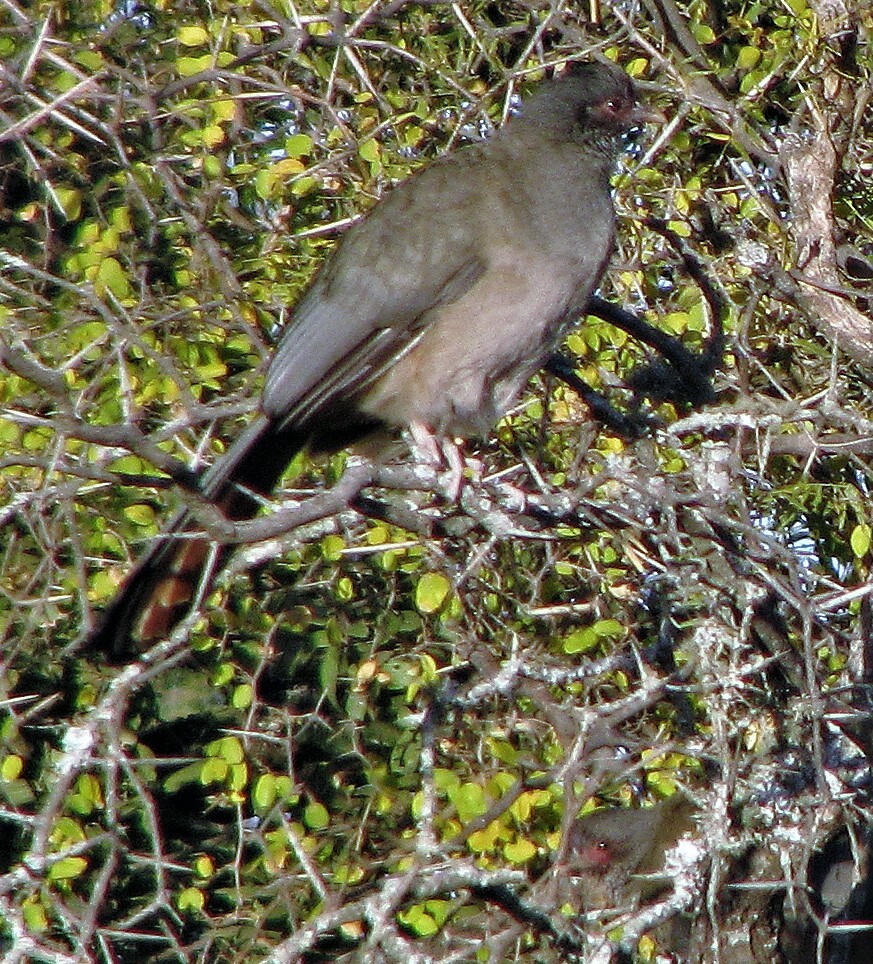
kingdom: Animalia
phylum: Chordata
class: Aves
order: Galliformes
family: Cracidae
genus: Ortalis
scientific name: Ortalis canicollis
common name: Chaco chachalaca
